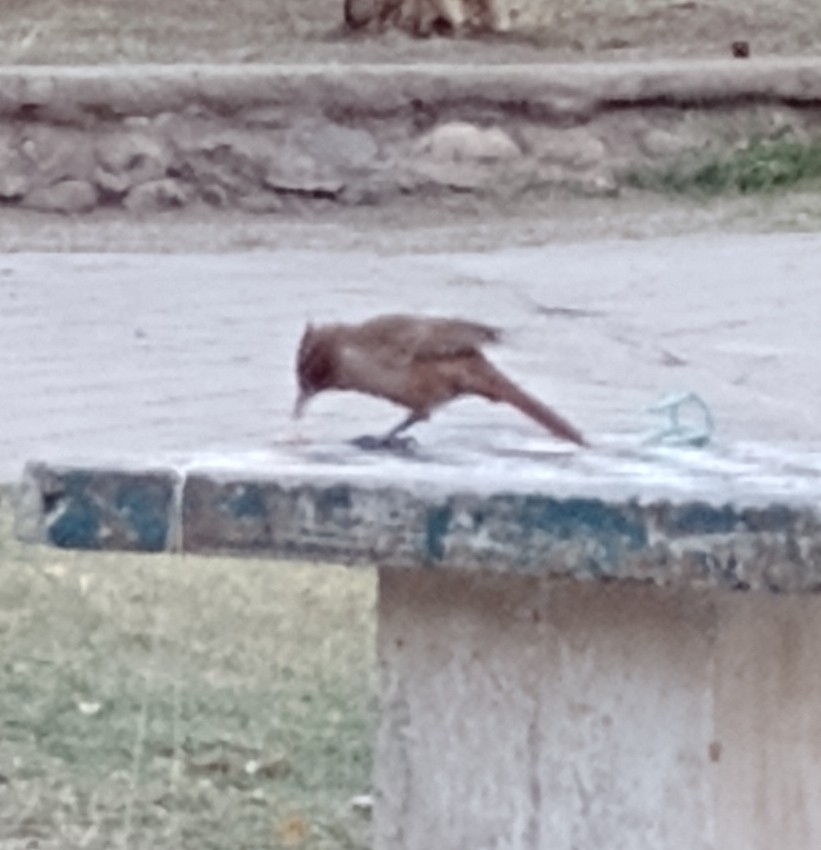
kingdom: Animalia
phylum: Chordata
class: Aves
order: Passeriformes
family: Furnariidae
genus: Pseudoseisura
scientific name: Pseudoseisura lophotes
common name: Brown cacholote
